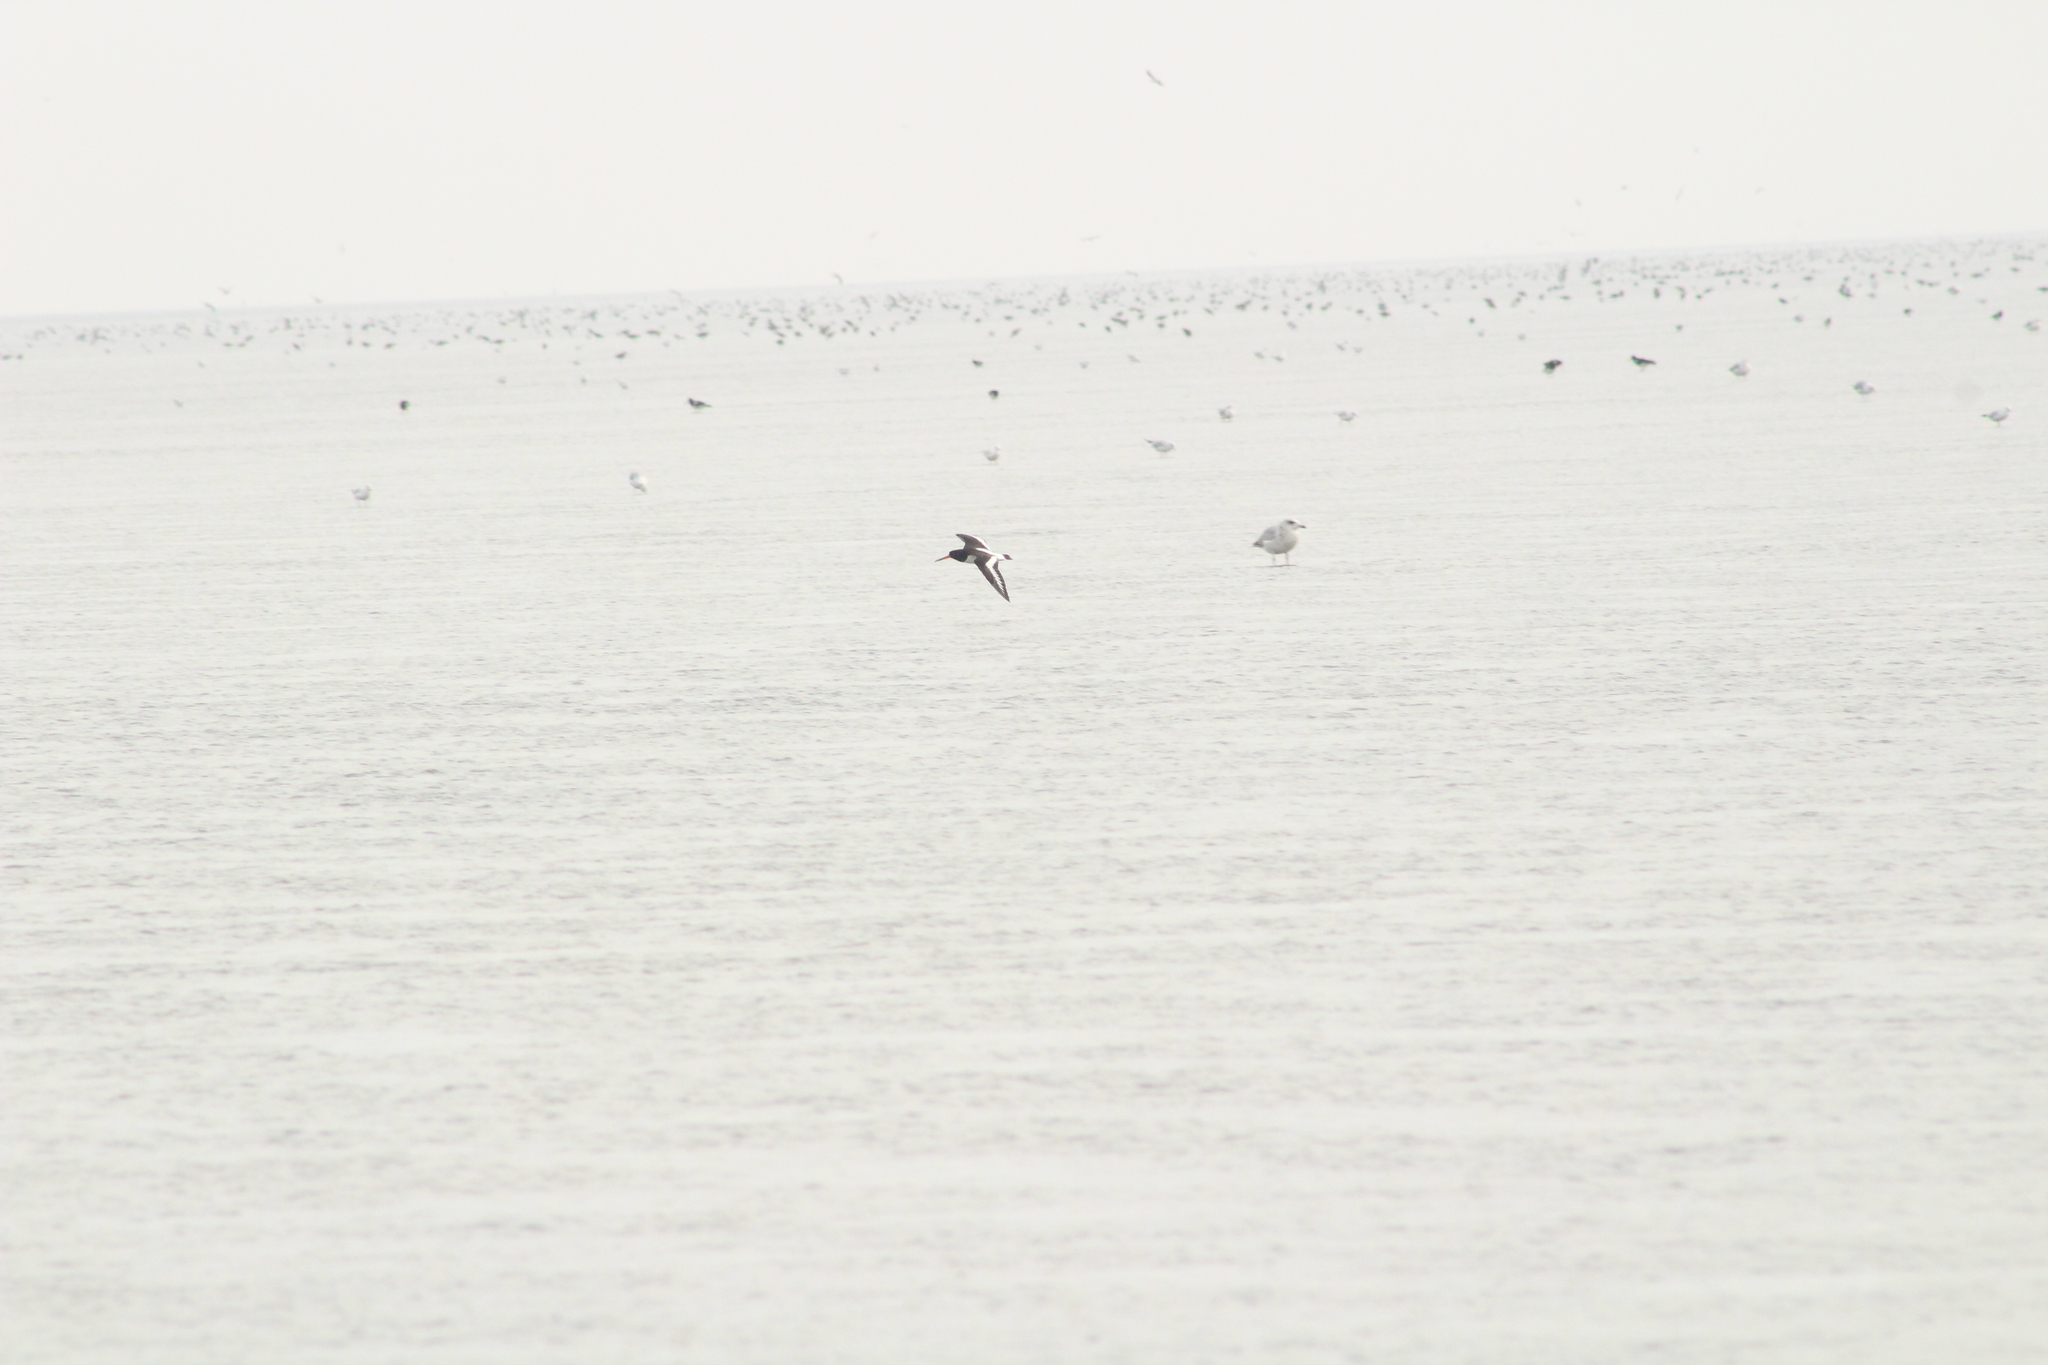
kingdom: Animalia
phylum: Chordata
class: Aves
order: Charadriiformes
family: Haematopodidae
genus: Haematopus
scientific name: Haematopus ostralegus
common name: Eurasian oystercatcher
